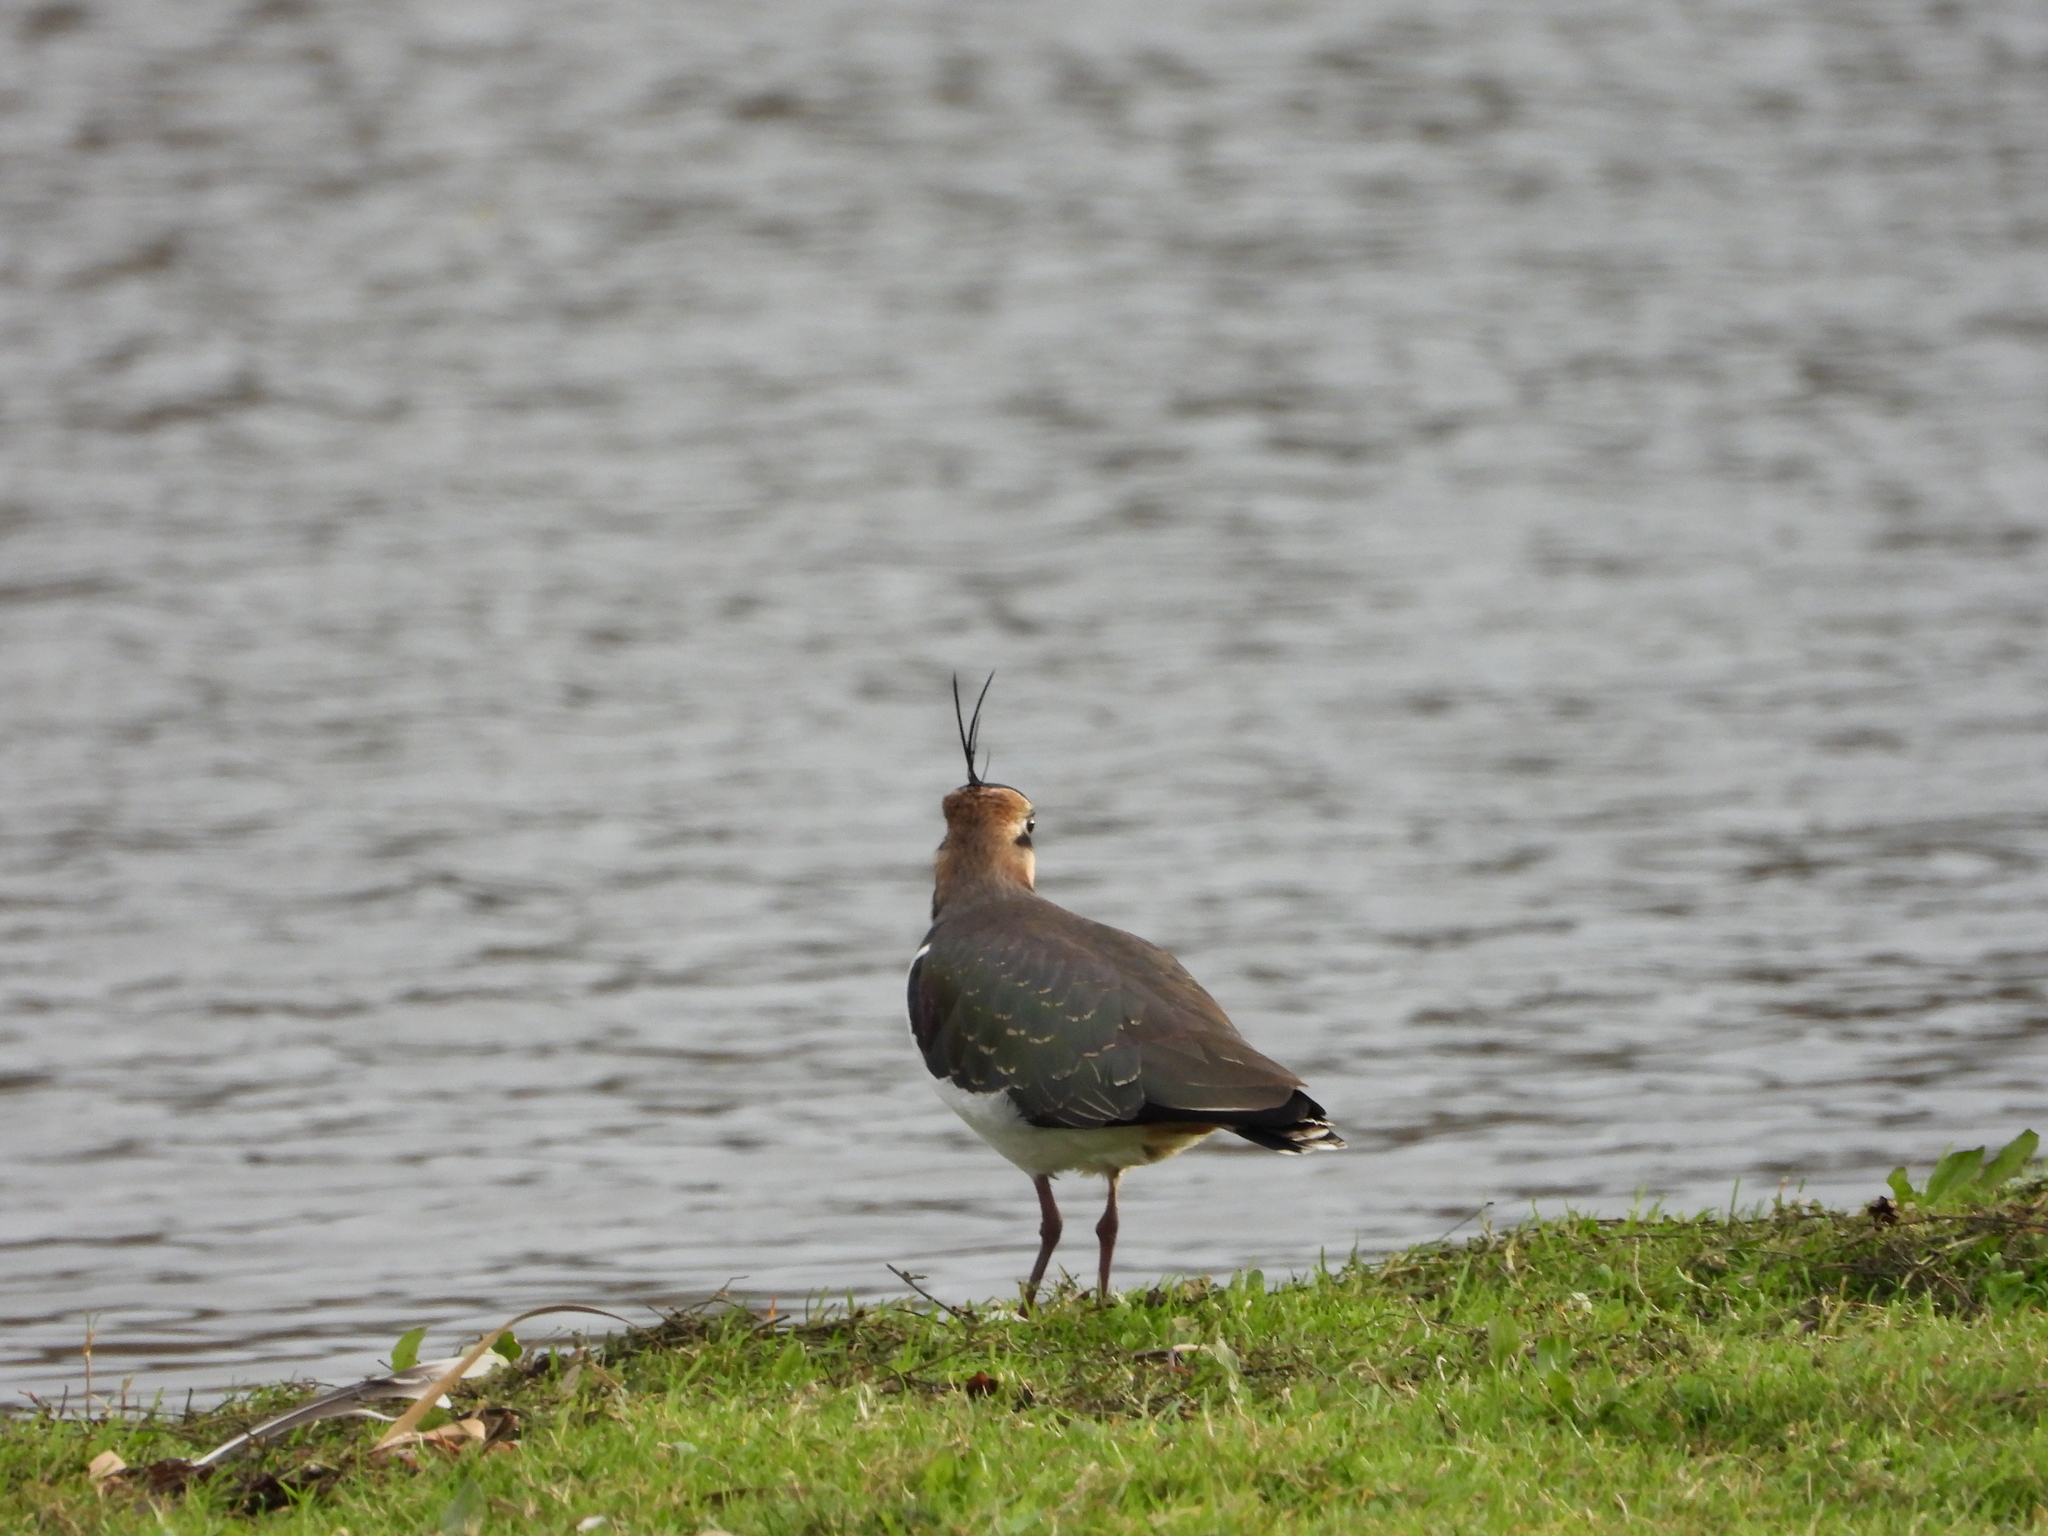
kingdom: Animalia
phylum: Chordata
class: Aves
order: Charadriiformes
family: Charadriidae
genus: Vanellus
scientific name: Vanellus vanellus
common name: Northern lapwing
